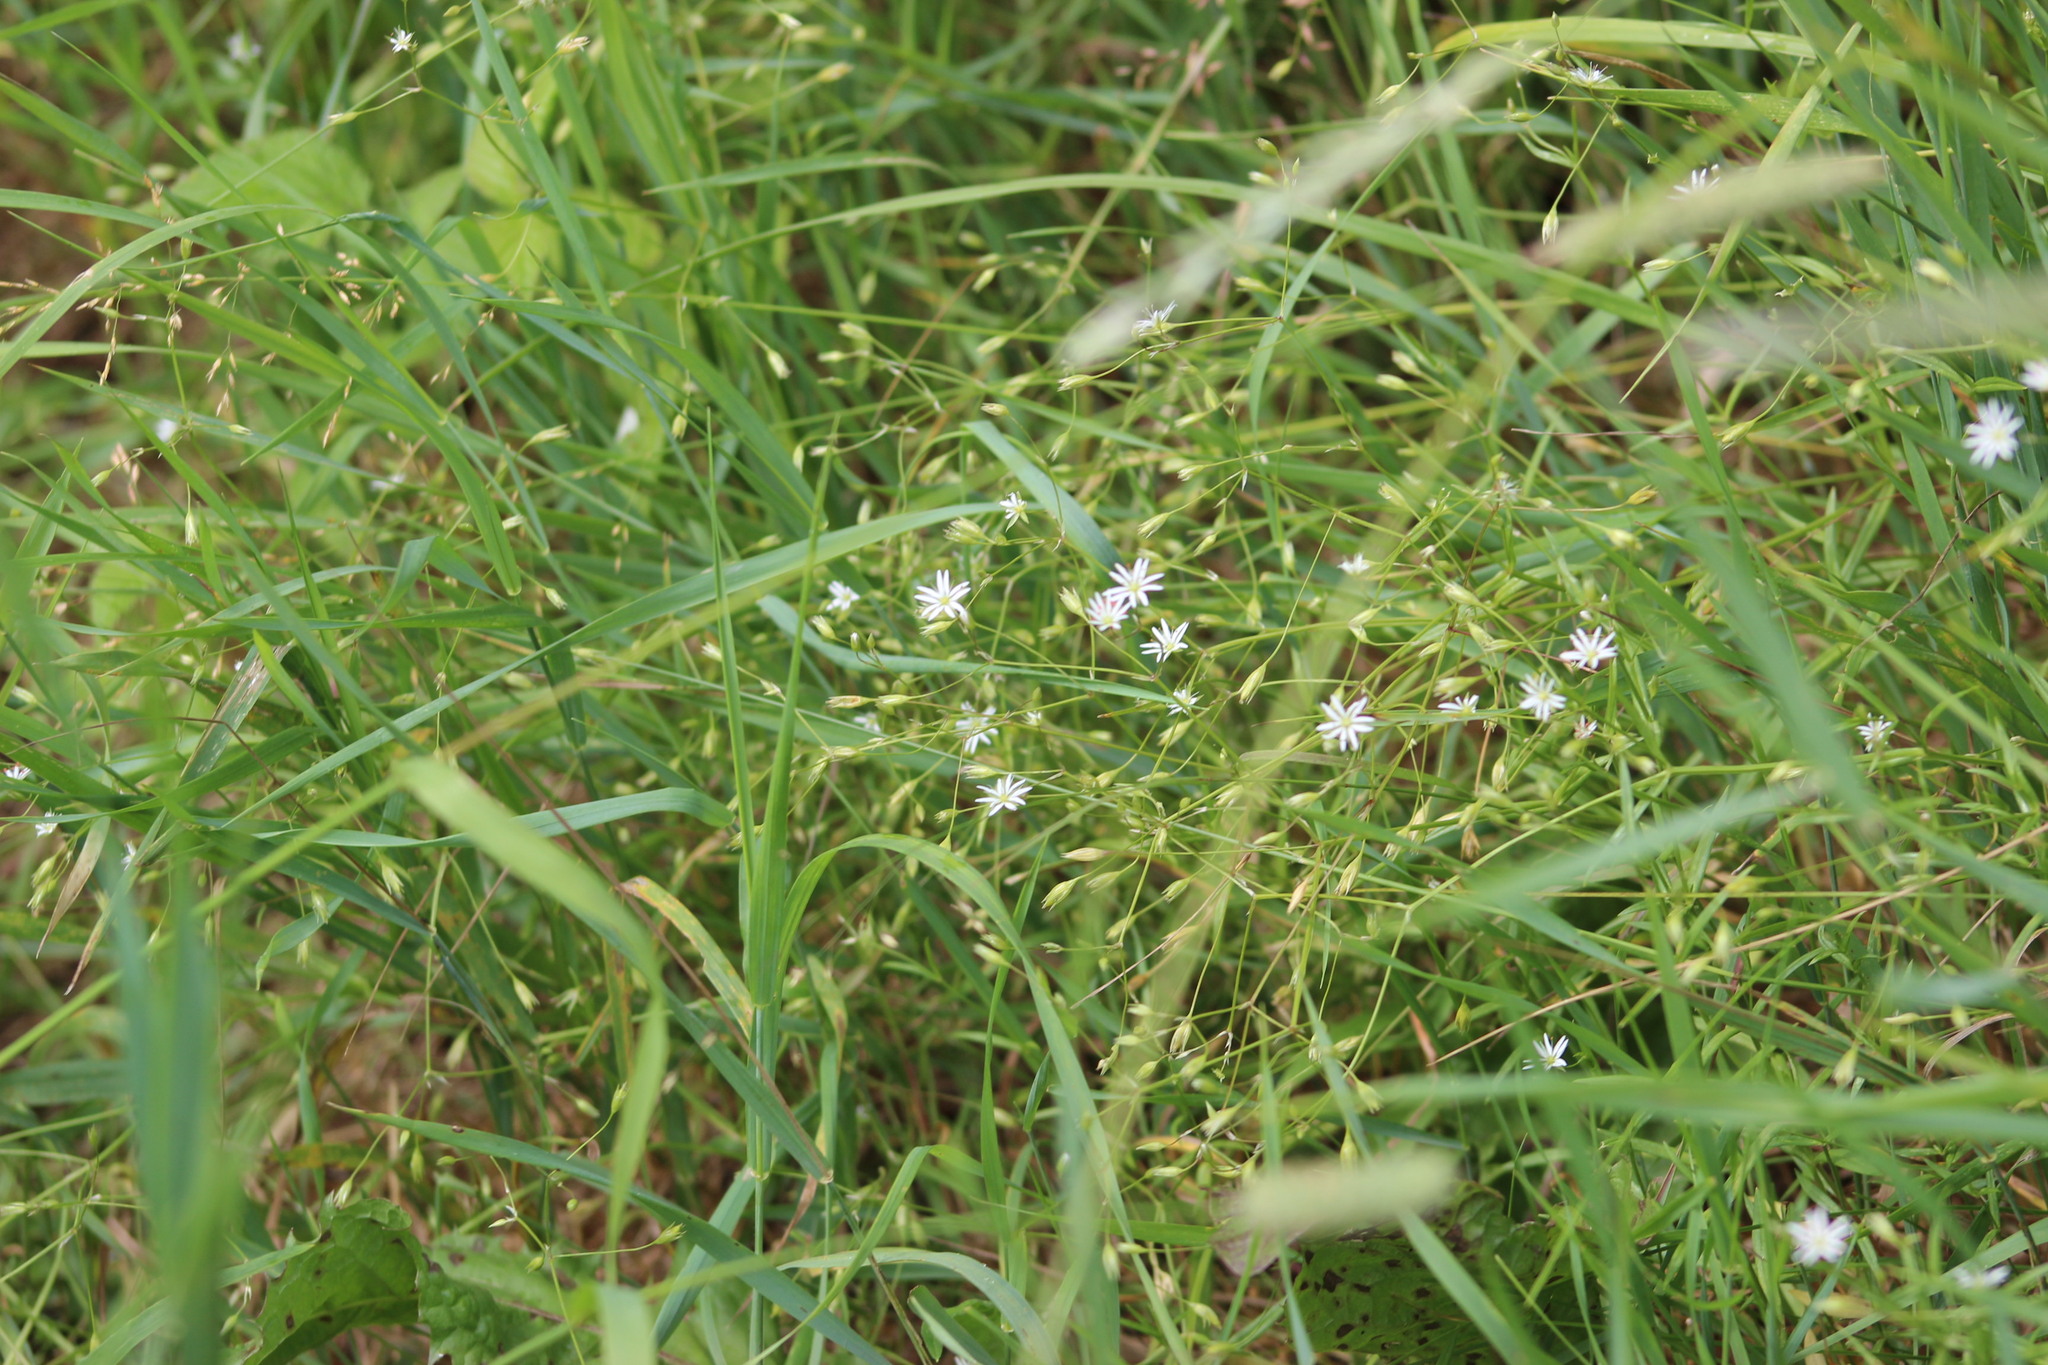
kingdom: Plantae
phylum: Tracheophyta
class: Magnoliopsida
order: Caryophyllales
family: Caryophyllaceae
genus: Stellaria
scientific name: Stellaria graminea
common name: Grass-like starwort
